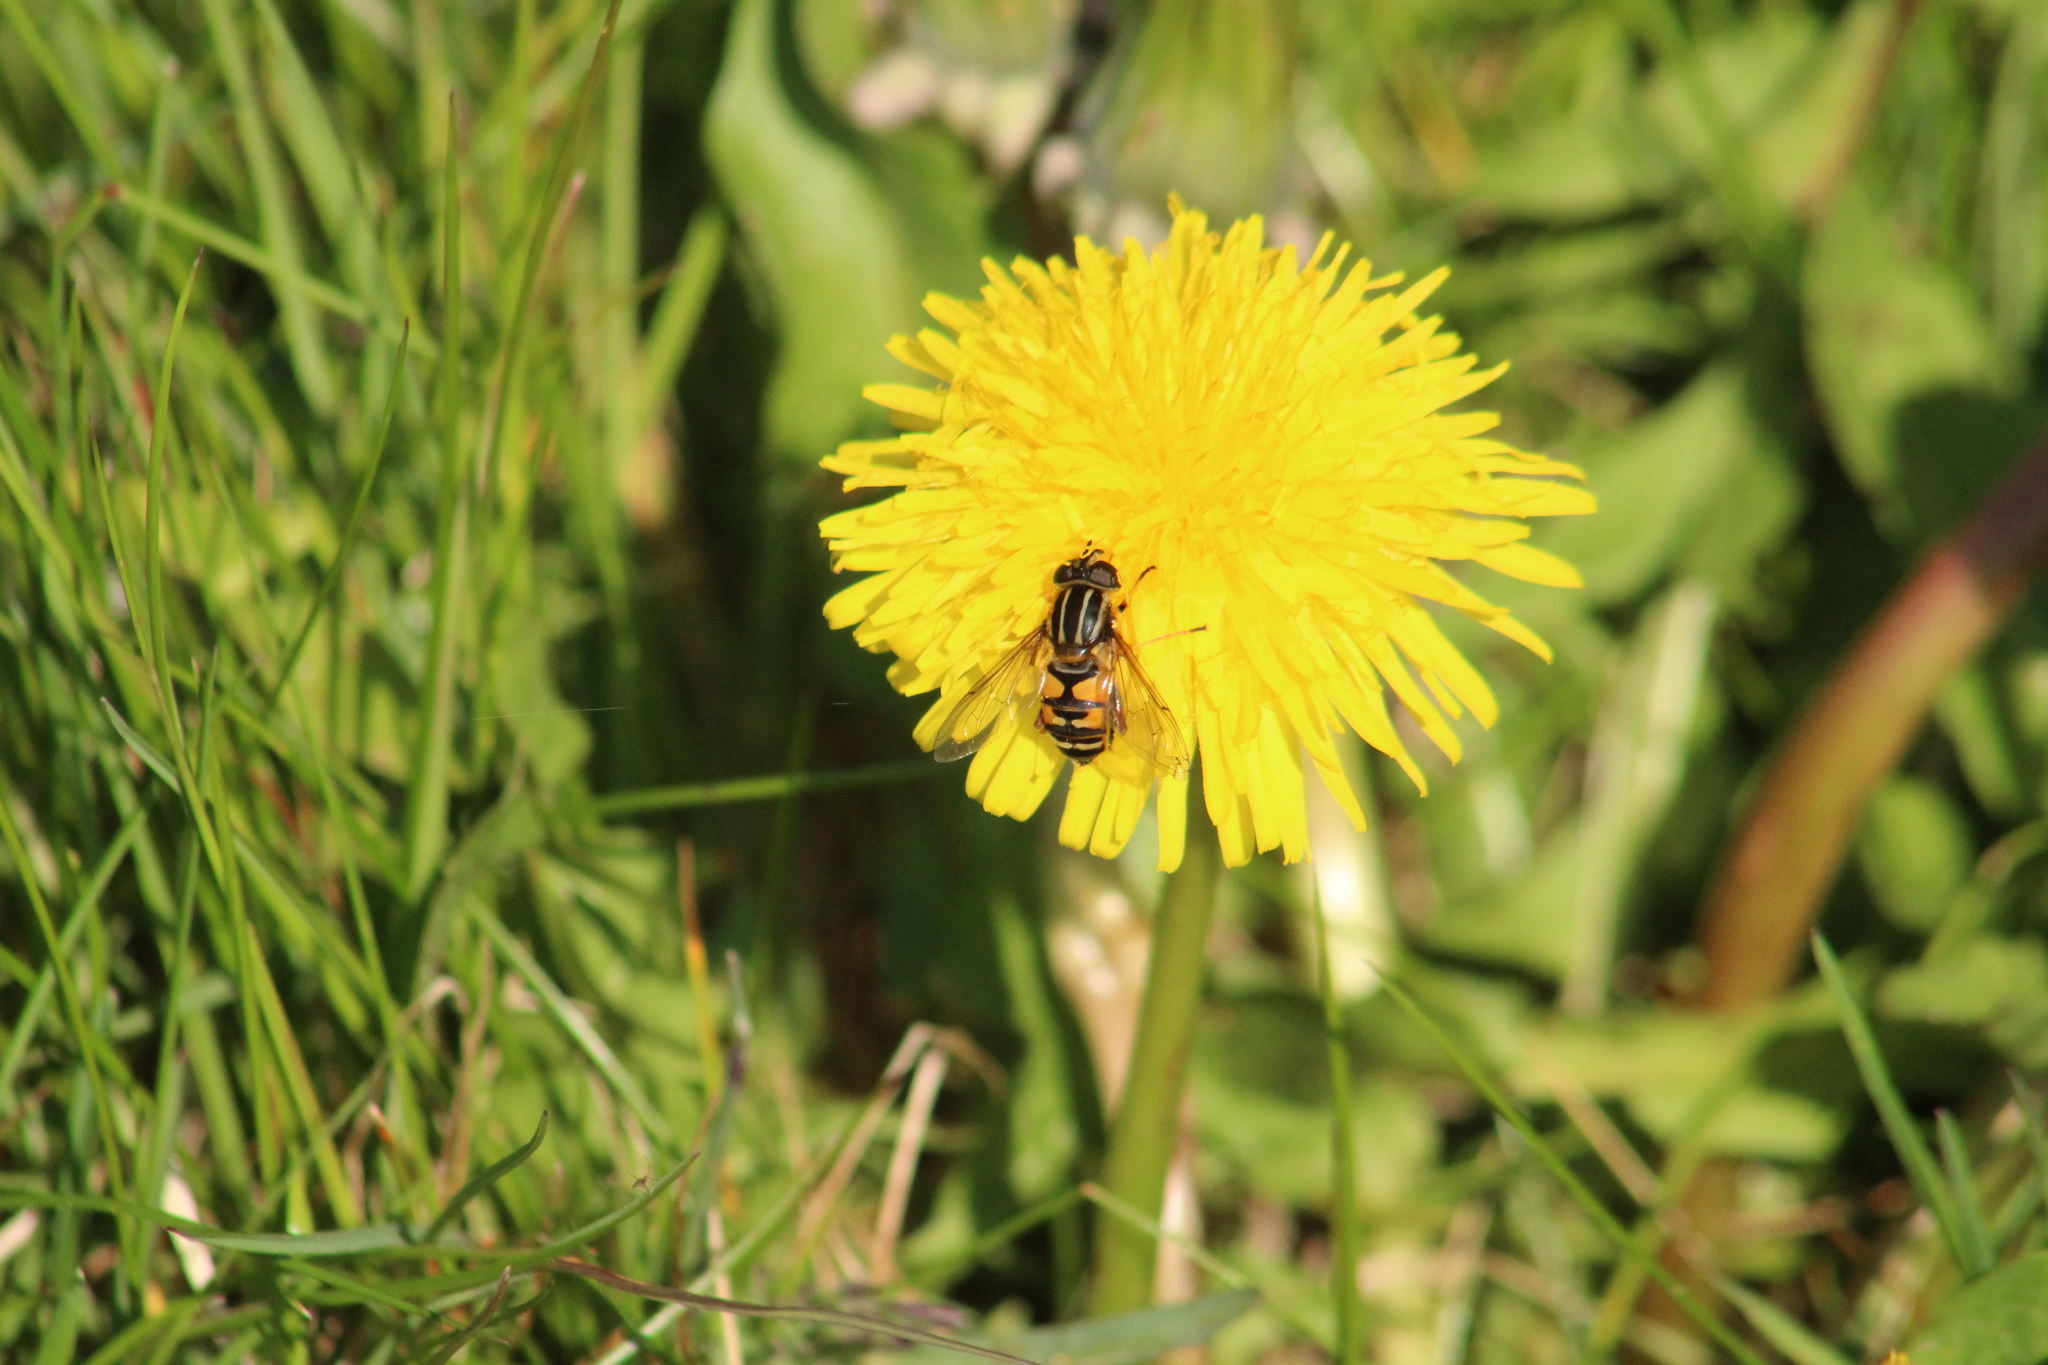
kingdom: Animalia
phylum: Arthropoda
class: Insecta
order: Diptera
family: Syrphidae
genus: Helophilus
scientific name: Helophilus pendulus
